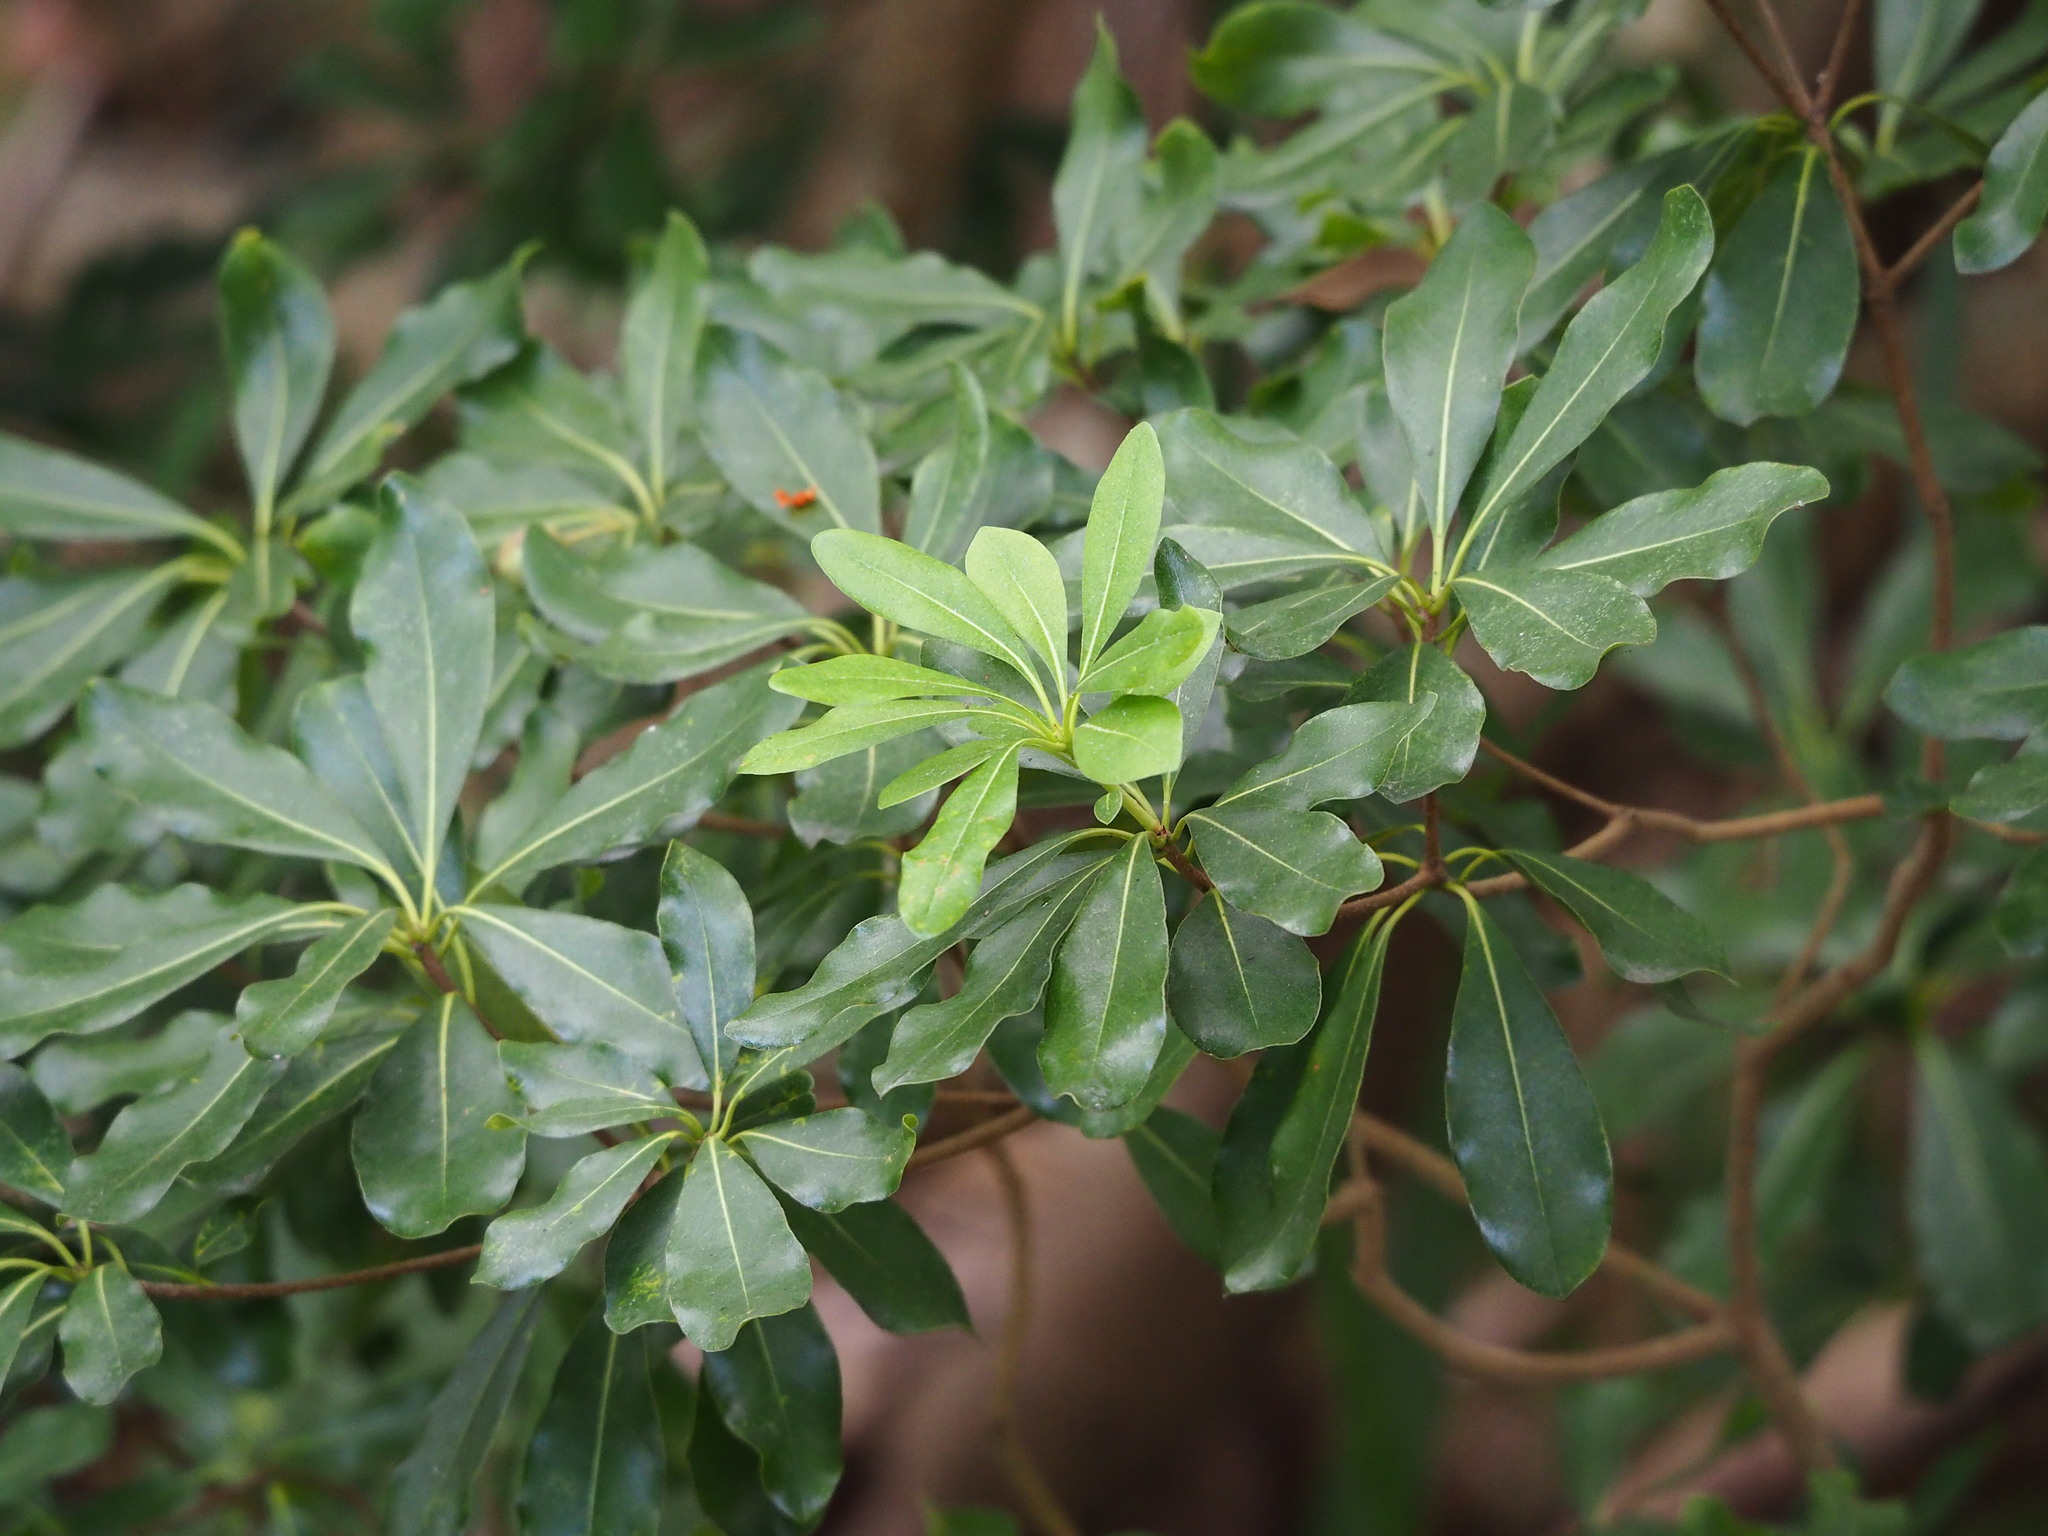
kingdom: Plantae
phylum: Tracheophyta
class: Magnoliopsida
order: Apiales
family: Pittosporaceae
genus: Pittosporum
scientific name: Pittosporum tobira
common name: Japanese cheesewood
